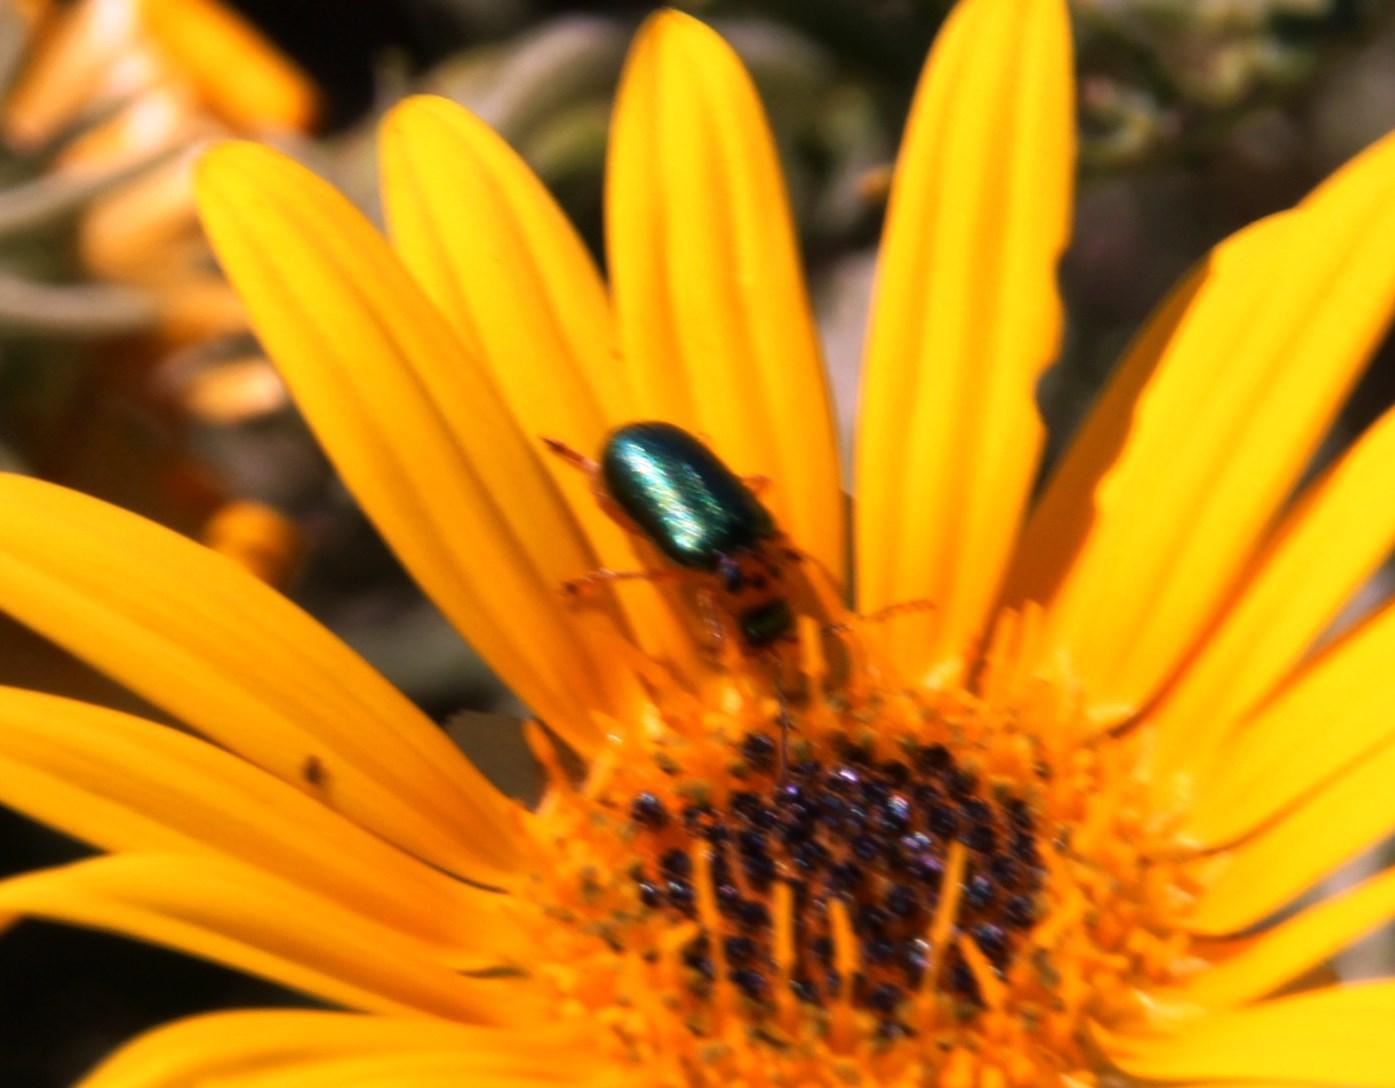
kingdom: Animalia
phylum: Arthropoda
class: Insecta
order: Coleoptera
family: Chrysomelidae
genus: Palaeophylia
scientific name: Palaeophylia
